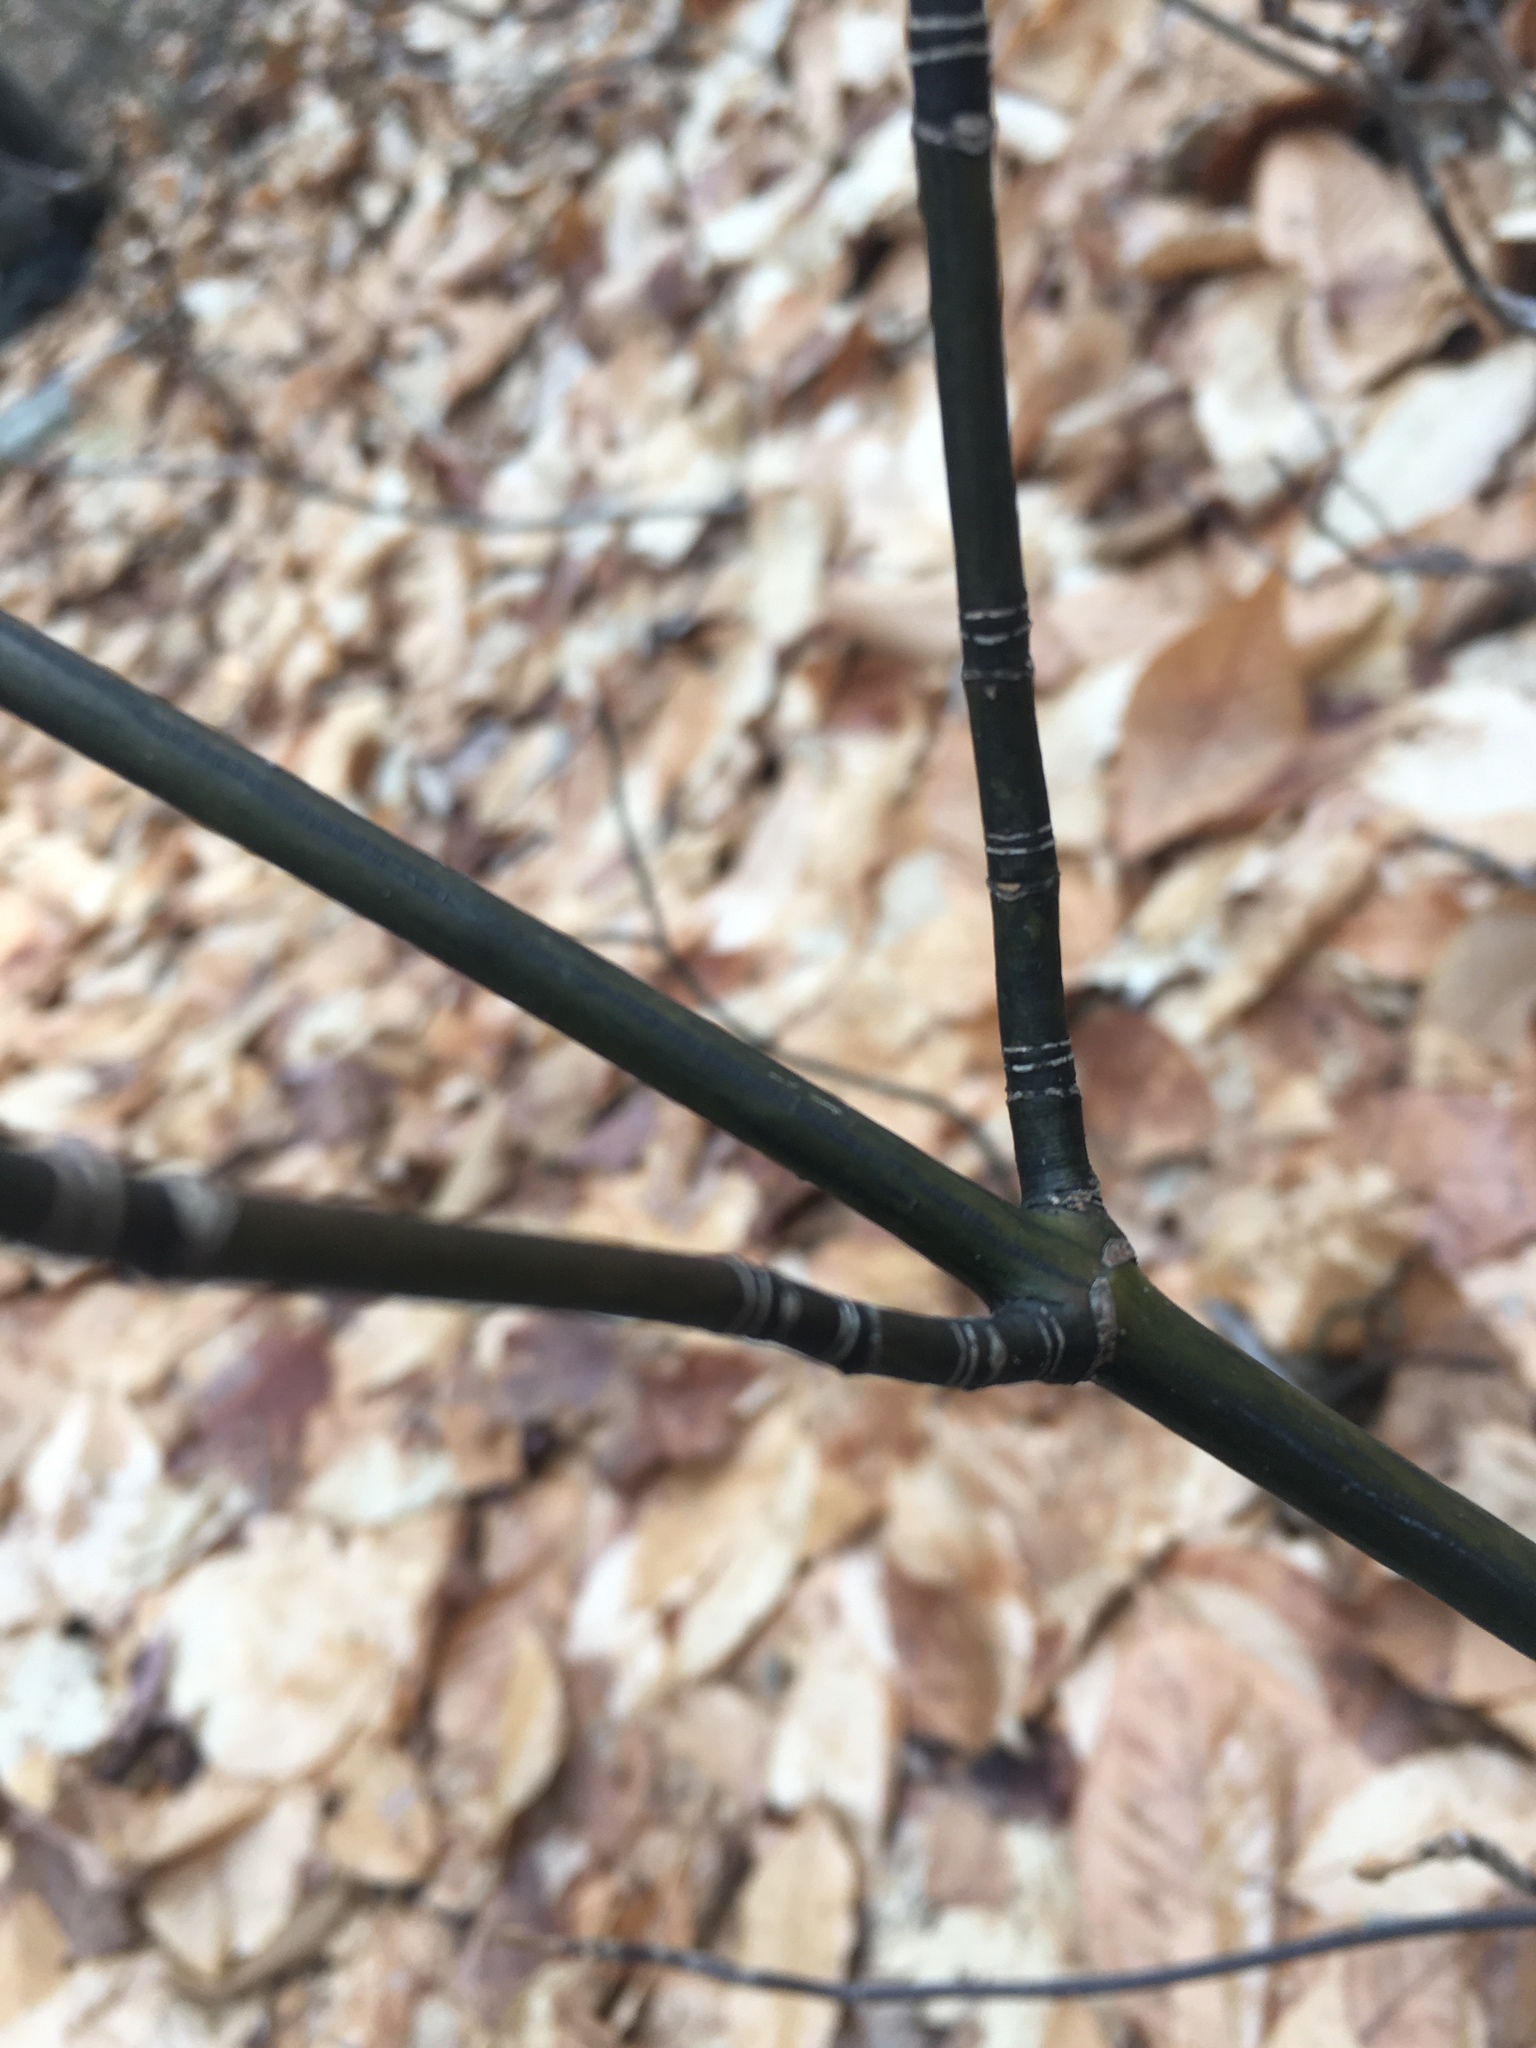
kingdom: Plantae
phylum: Tracheophyta
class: Magnoliopsida
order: Sapindales
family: Sapindaceae
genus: Acer
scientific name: Acer pensylvanicum
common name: Moosewood
